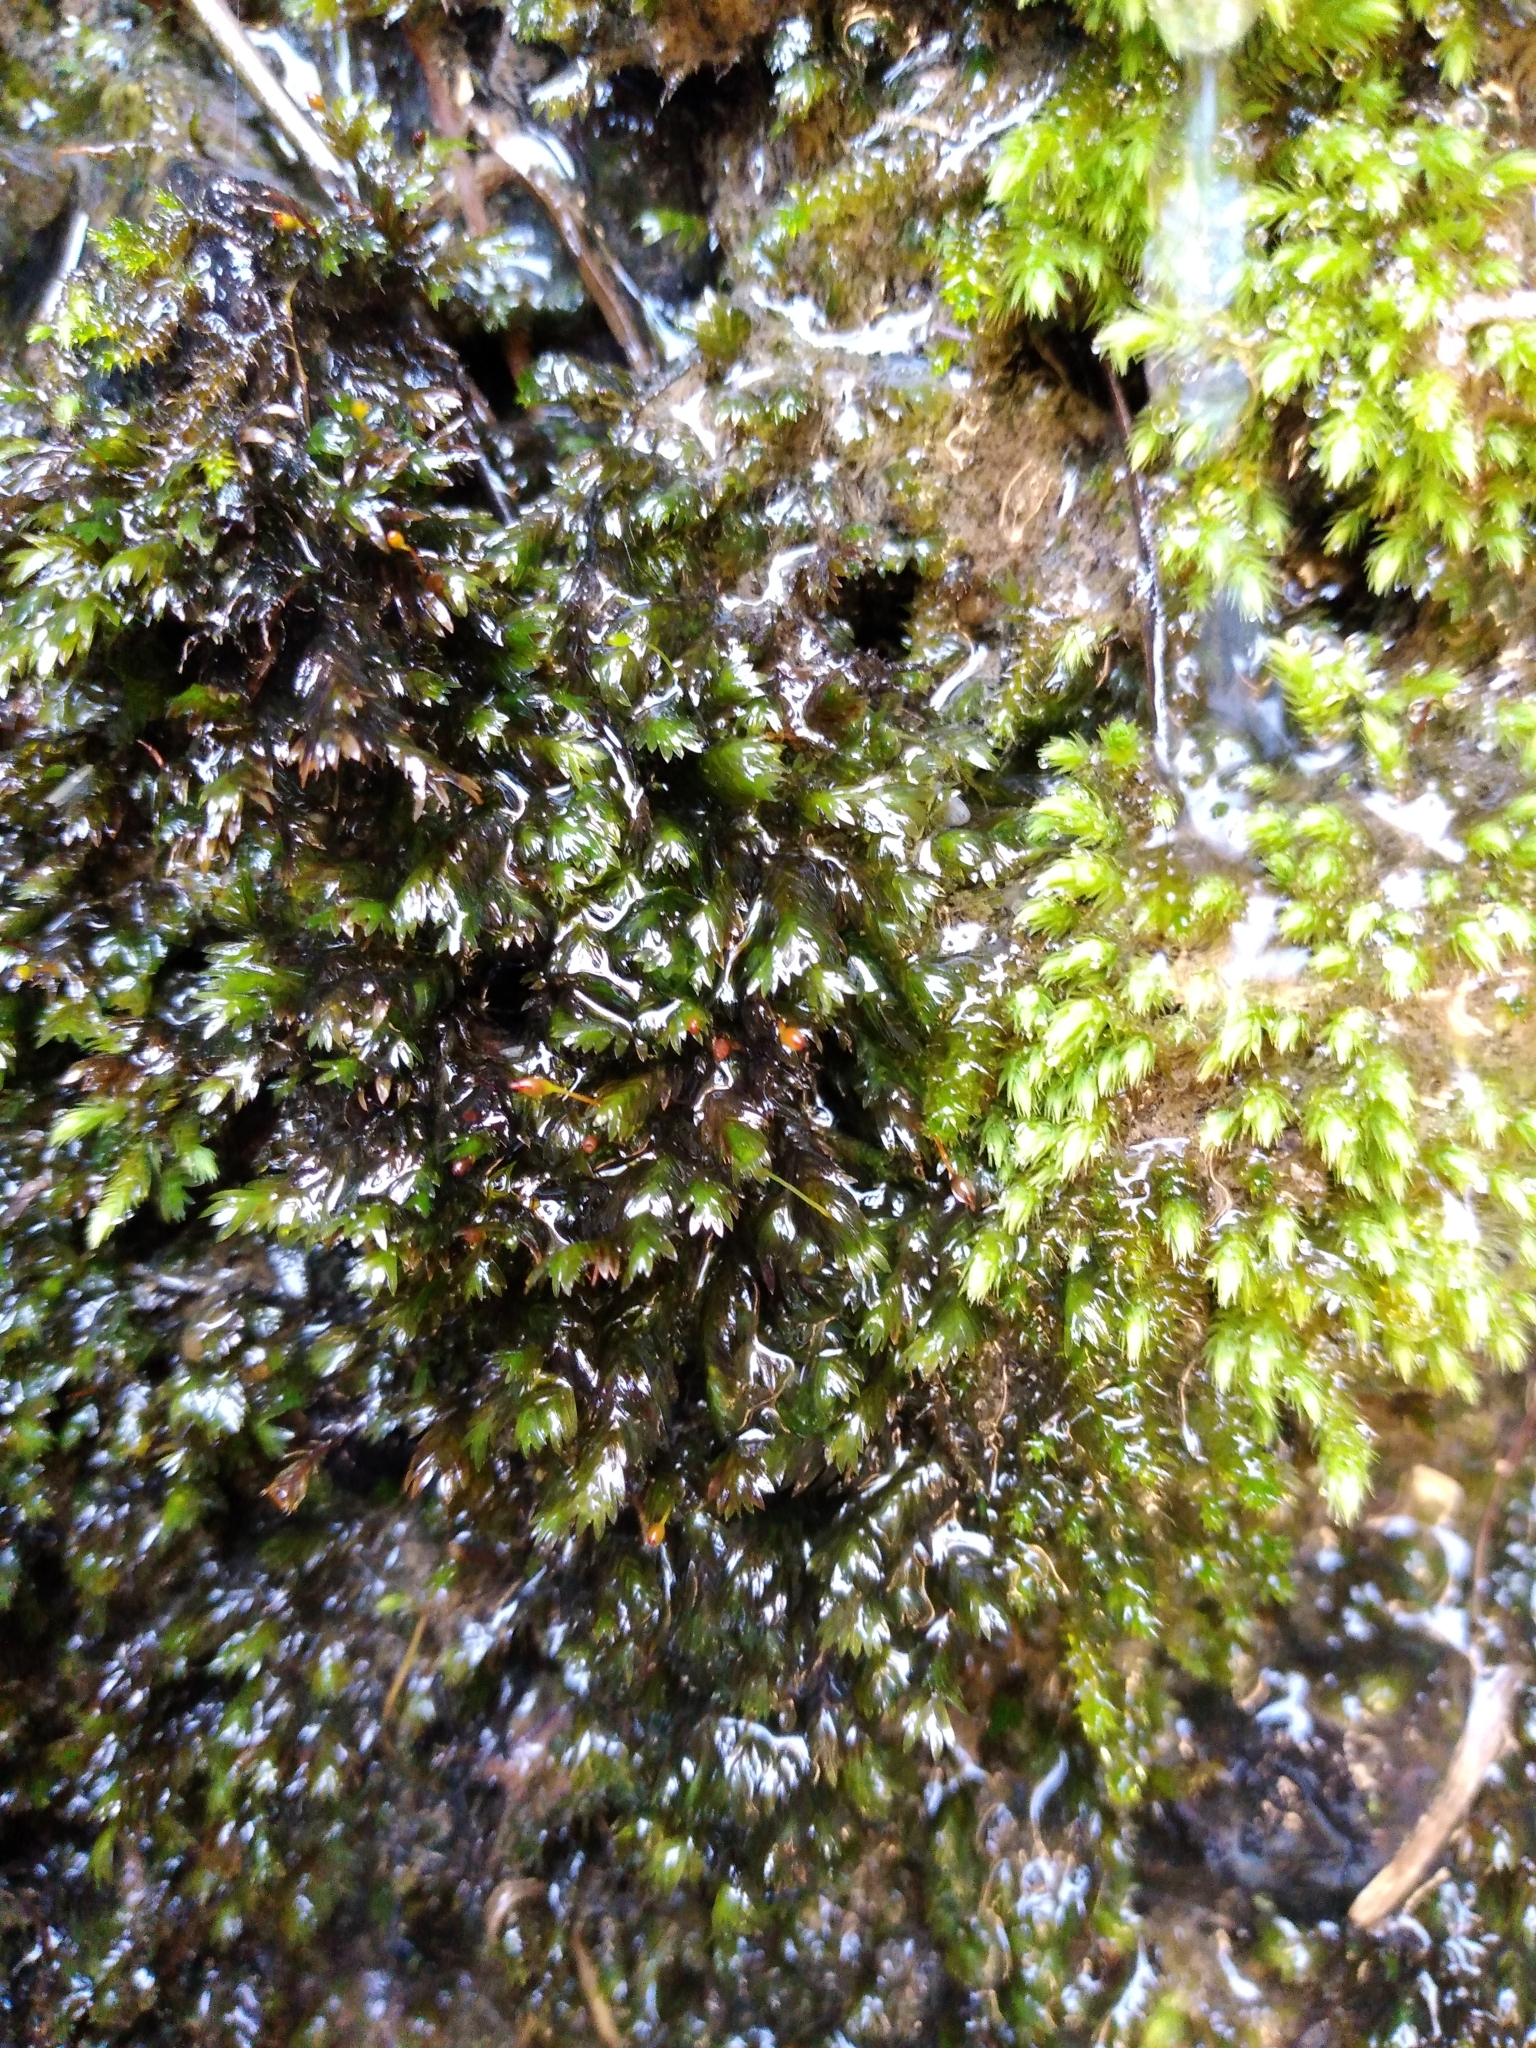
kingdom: Plantae
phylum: Bryophyta
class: Bryopsida
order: Dicranales
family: Fissidentaceae
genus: Fissidens
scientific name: Fissidens rigidulus
